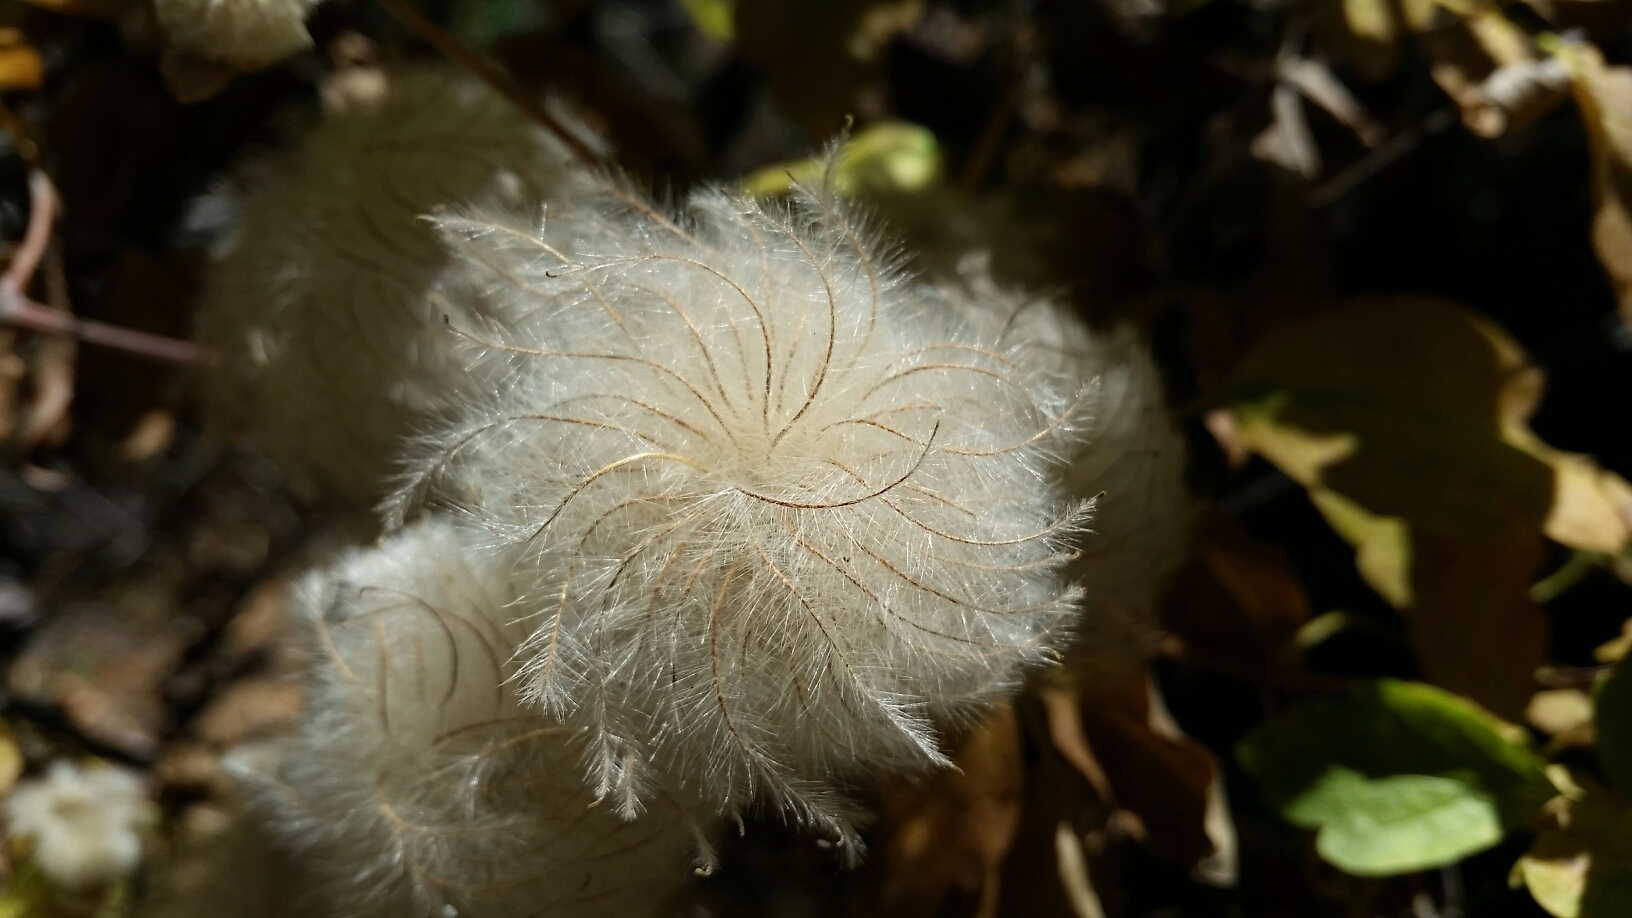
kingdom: Plantae
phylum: Tracheophyta
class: Magnoliopsida
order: Ranunculales
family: Ranunculaceae
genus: Clematis
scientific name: Clematis lasiantha
